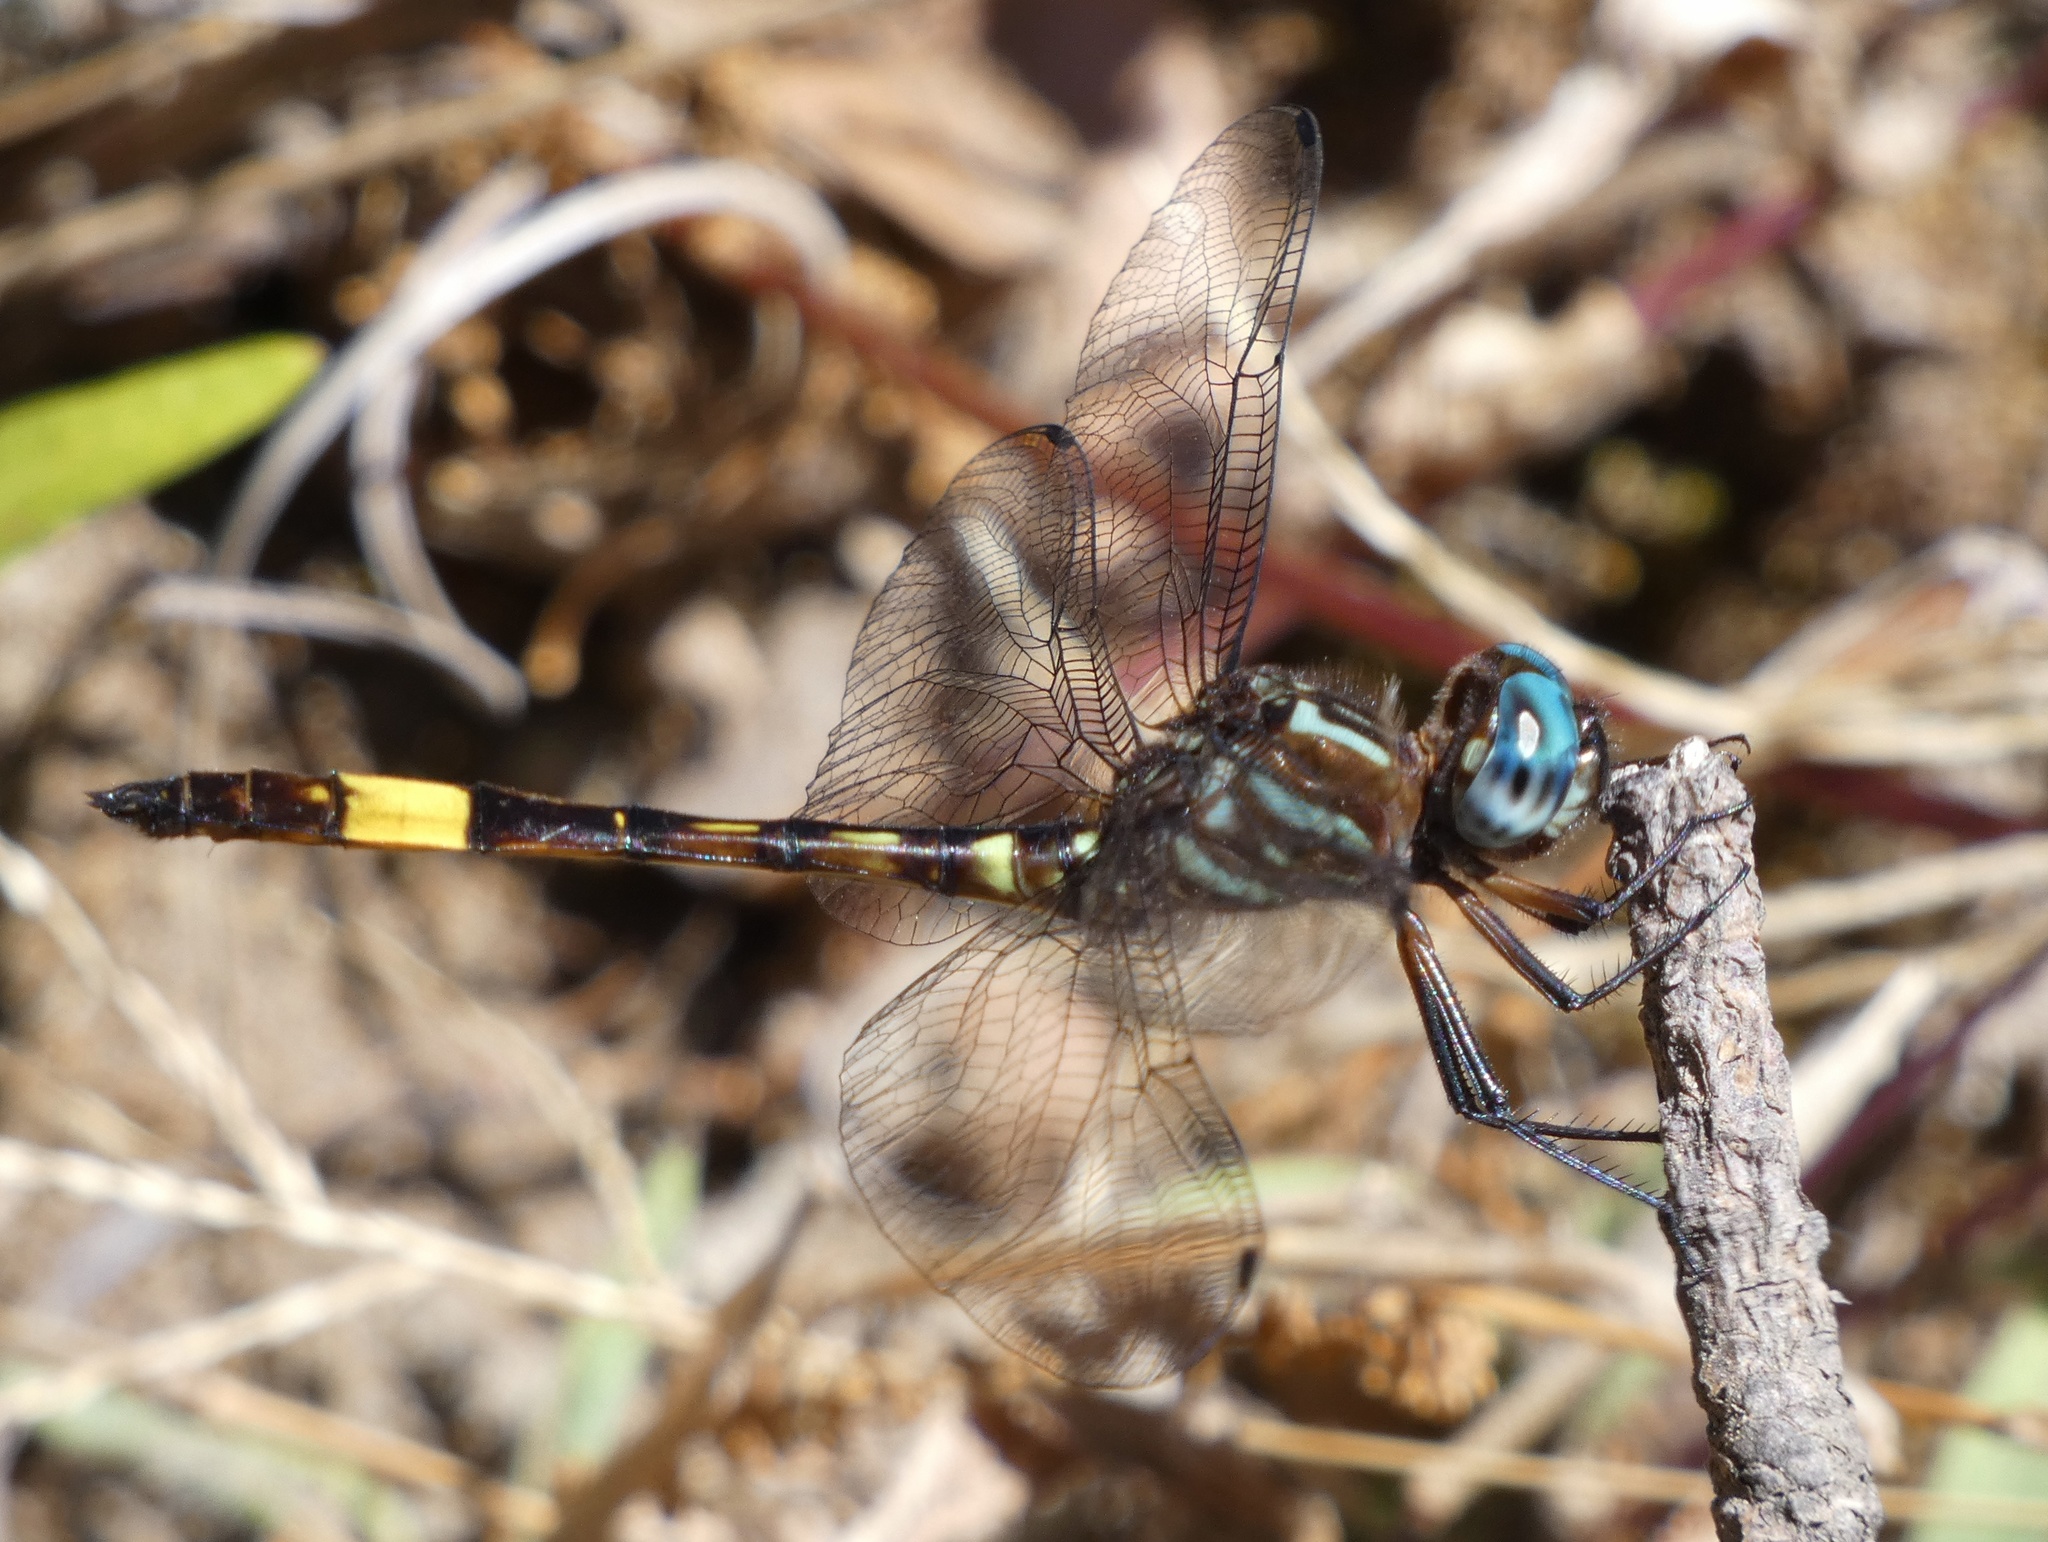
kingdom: Animalia
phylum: Arthropoda
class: Insecta
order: Odonata
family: Libellulidae
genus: Brechmorhoga
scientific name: Brechmorhoga rapax
